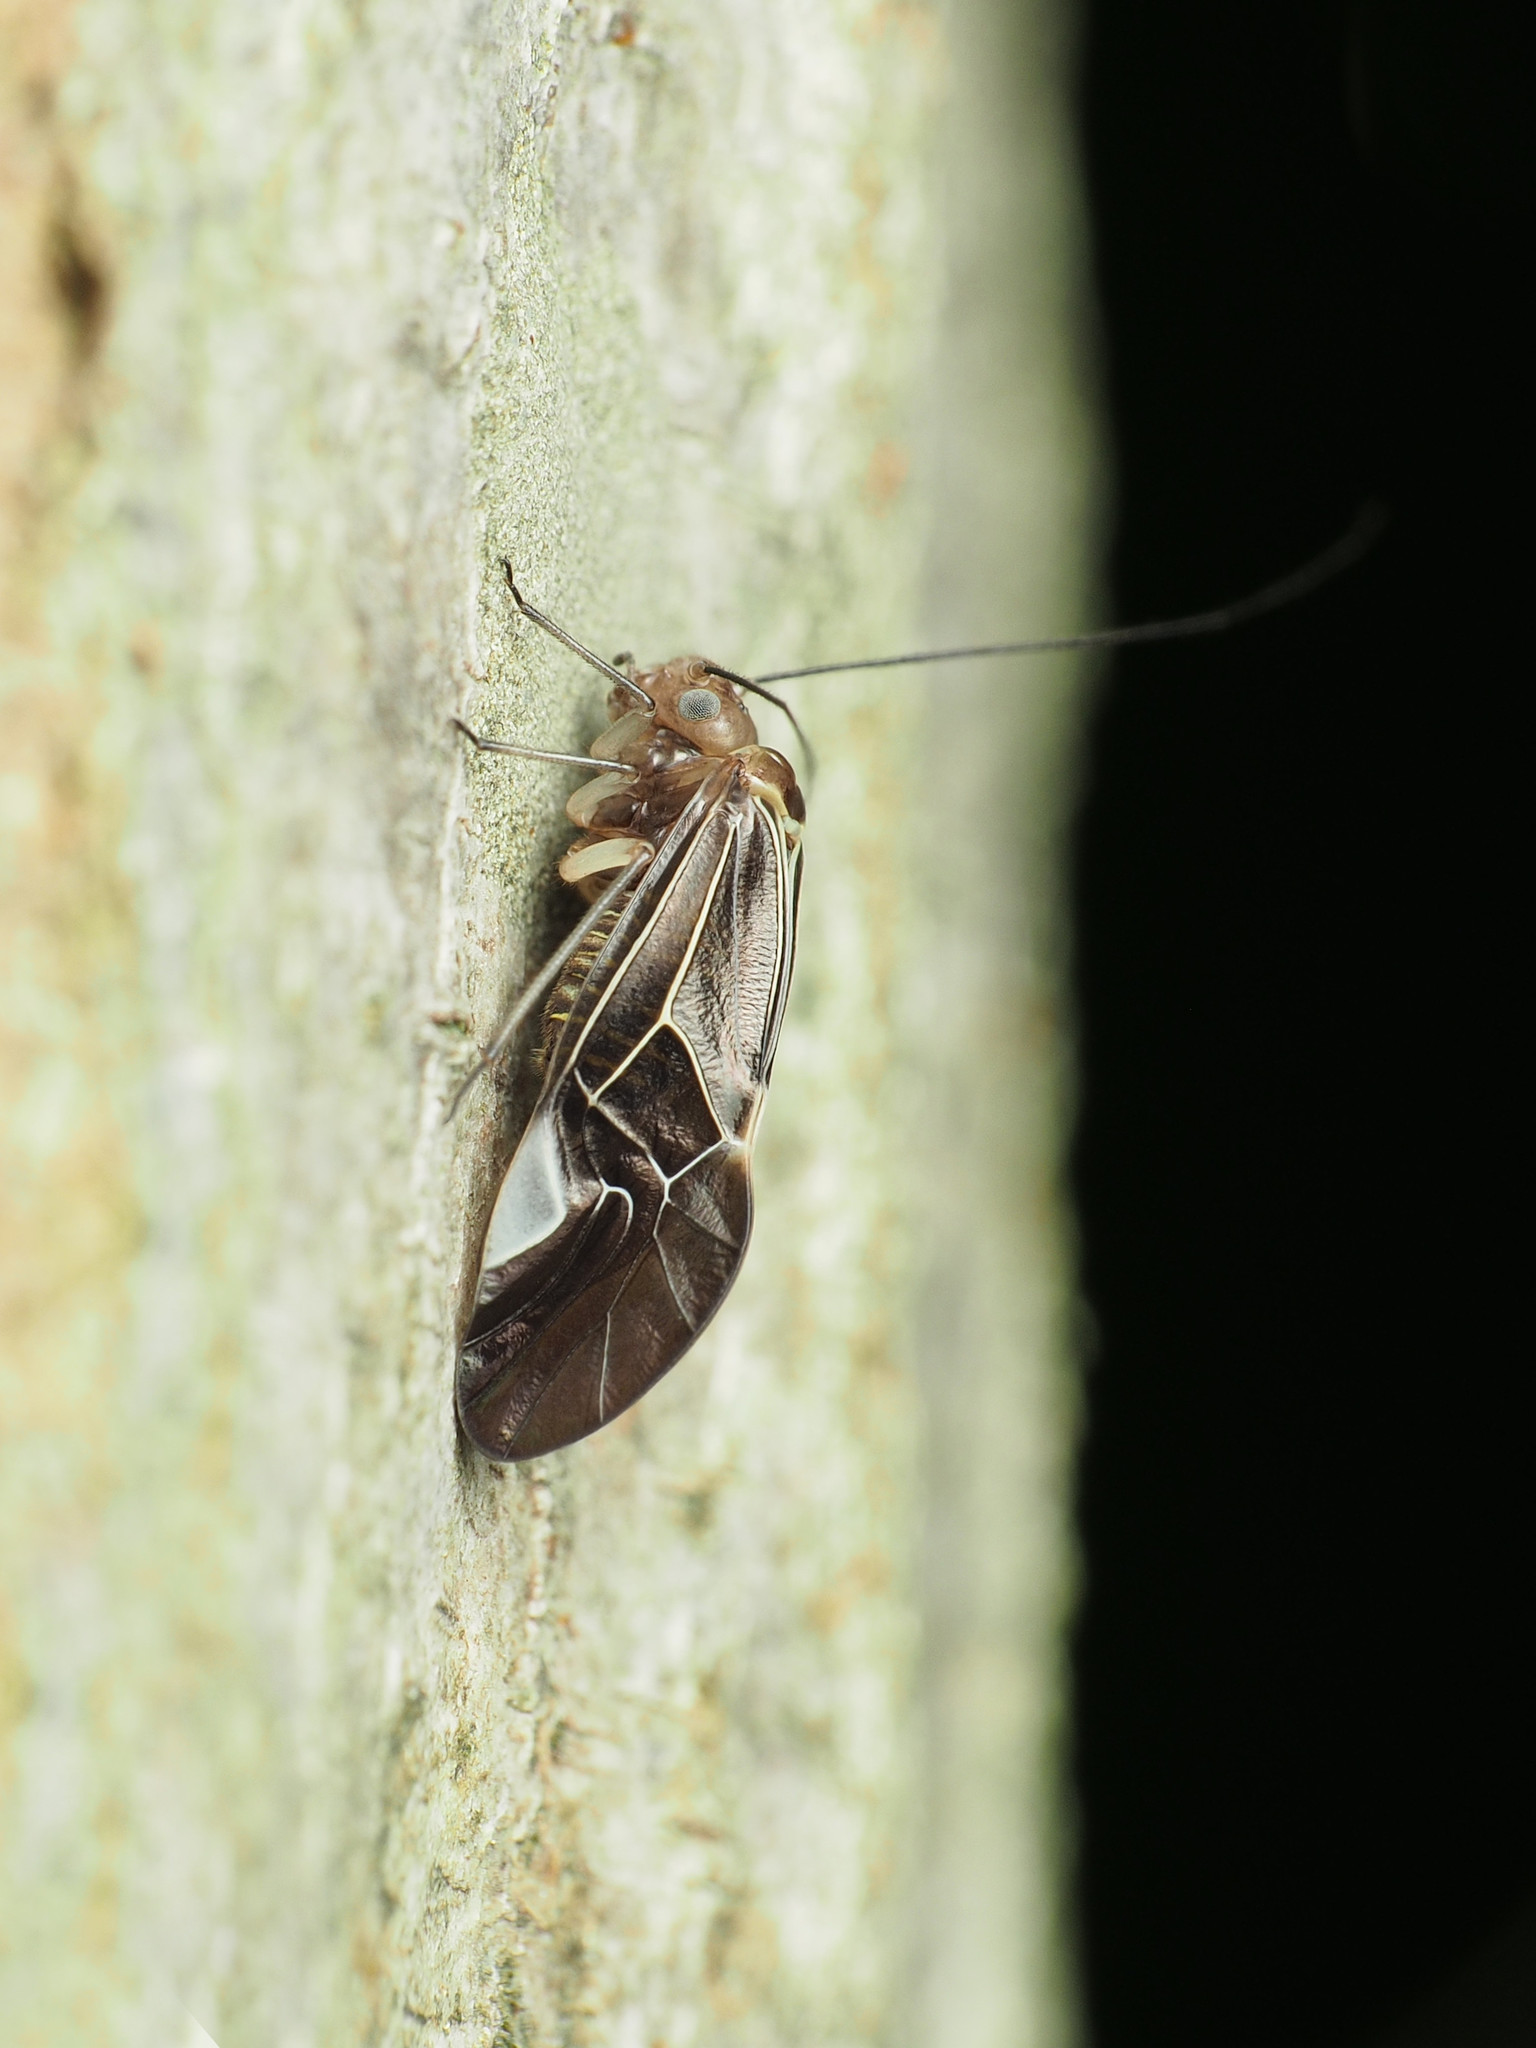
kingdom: Animalia
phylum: Arthropoda
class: Insecta
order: Psocodea
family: Psocidae
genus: Cerastipsocus
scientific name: Cerastipsocus venosus
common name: Tree cattle
